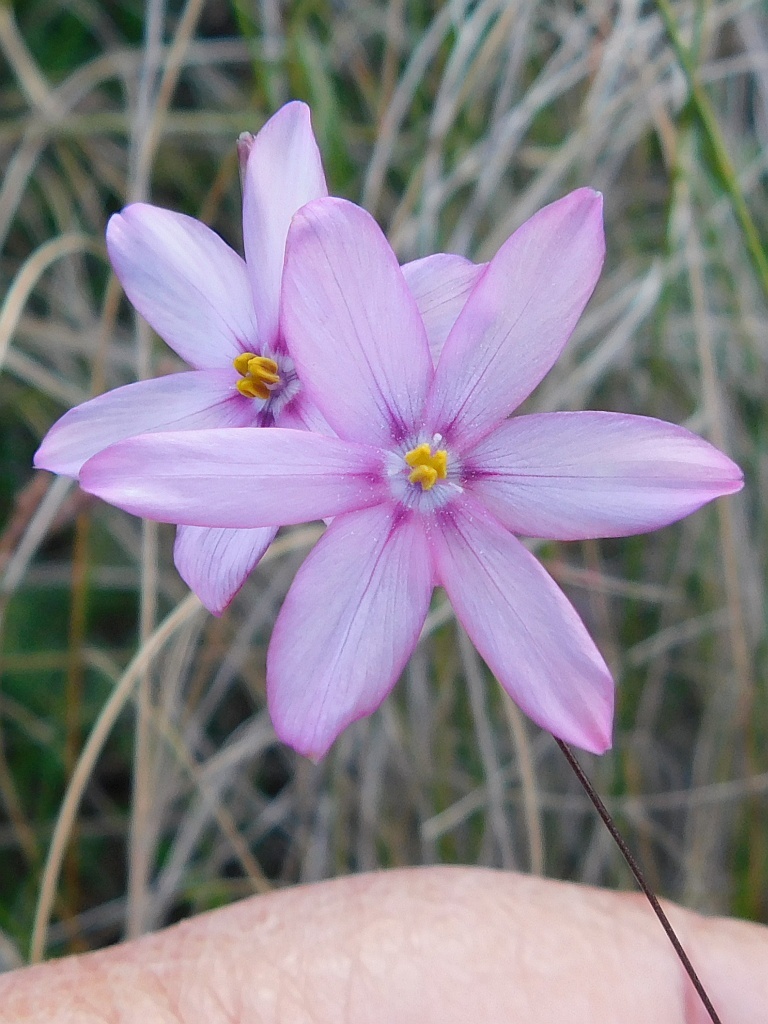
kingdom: Plantae
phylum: Tracheophyta
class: Liliopsida
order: Asparagales
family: Iridaceae
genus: Ixia
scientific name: Ixia micrandra
